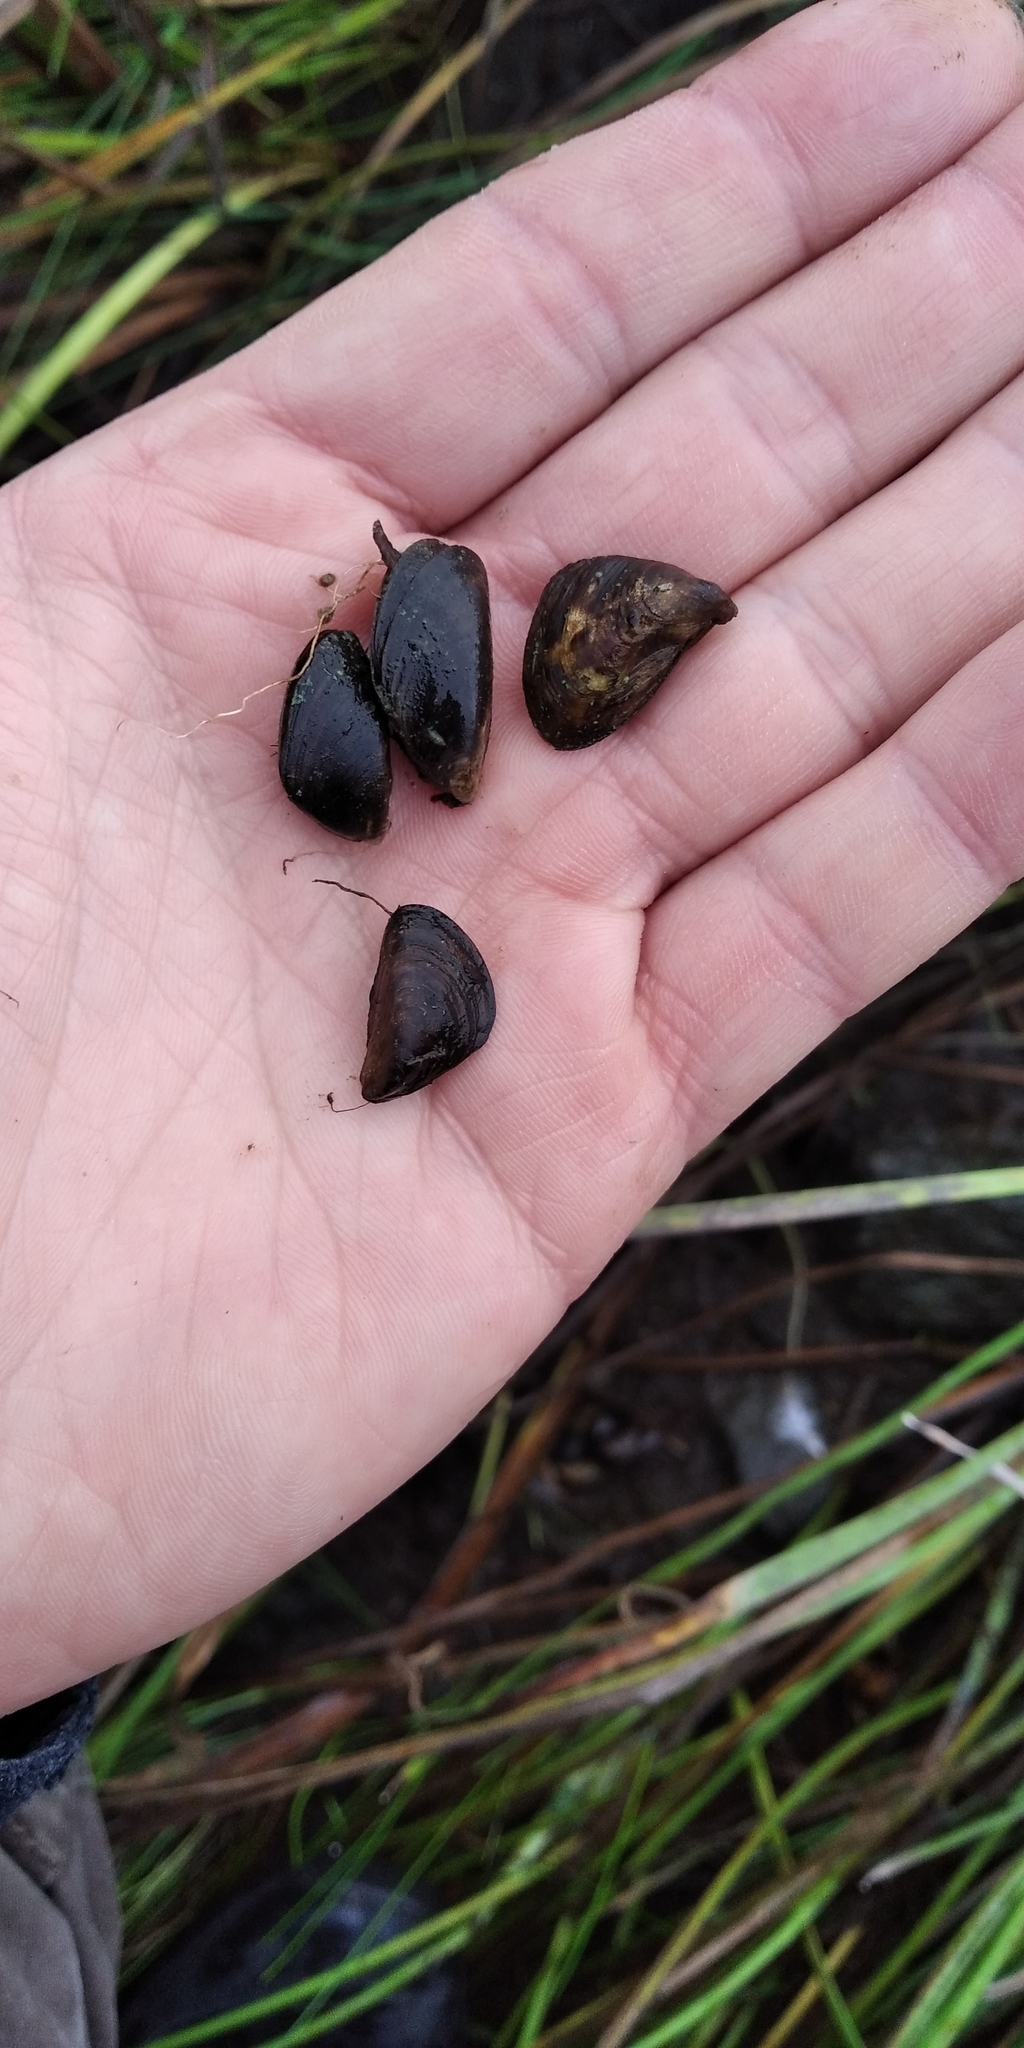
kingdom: Animalia
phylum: Mollusca
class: Bivalvia
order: Myida
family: Dreissenidae
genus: Dreissena
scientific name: Dreissena bugensis
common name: Quagga mussel
